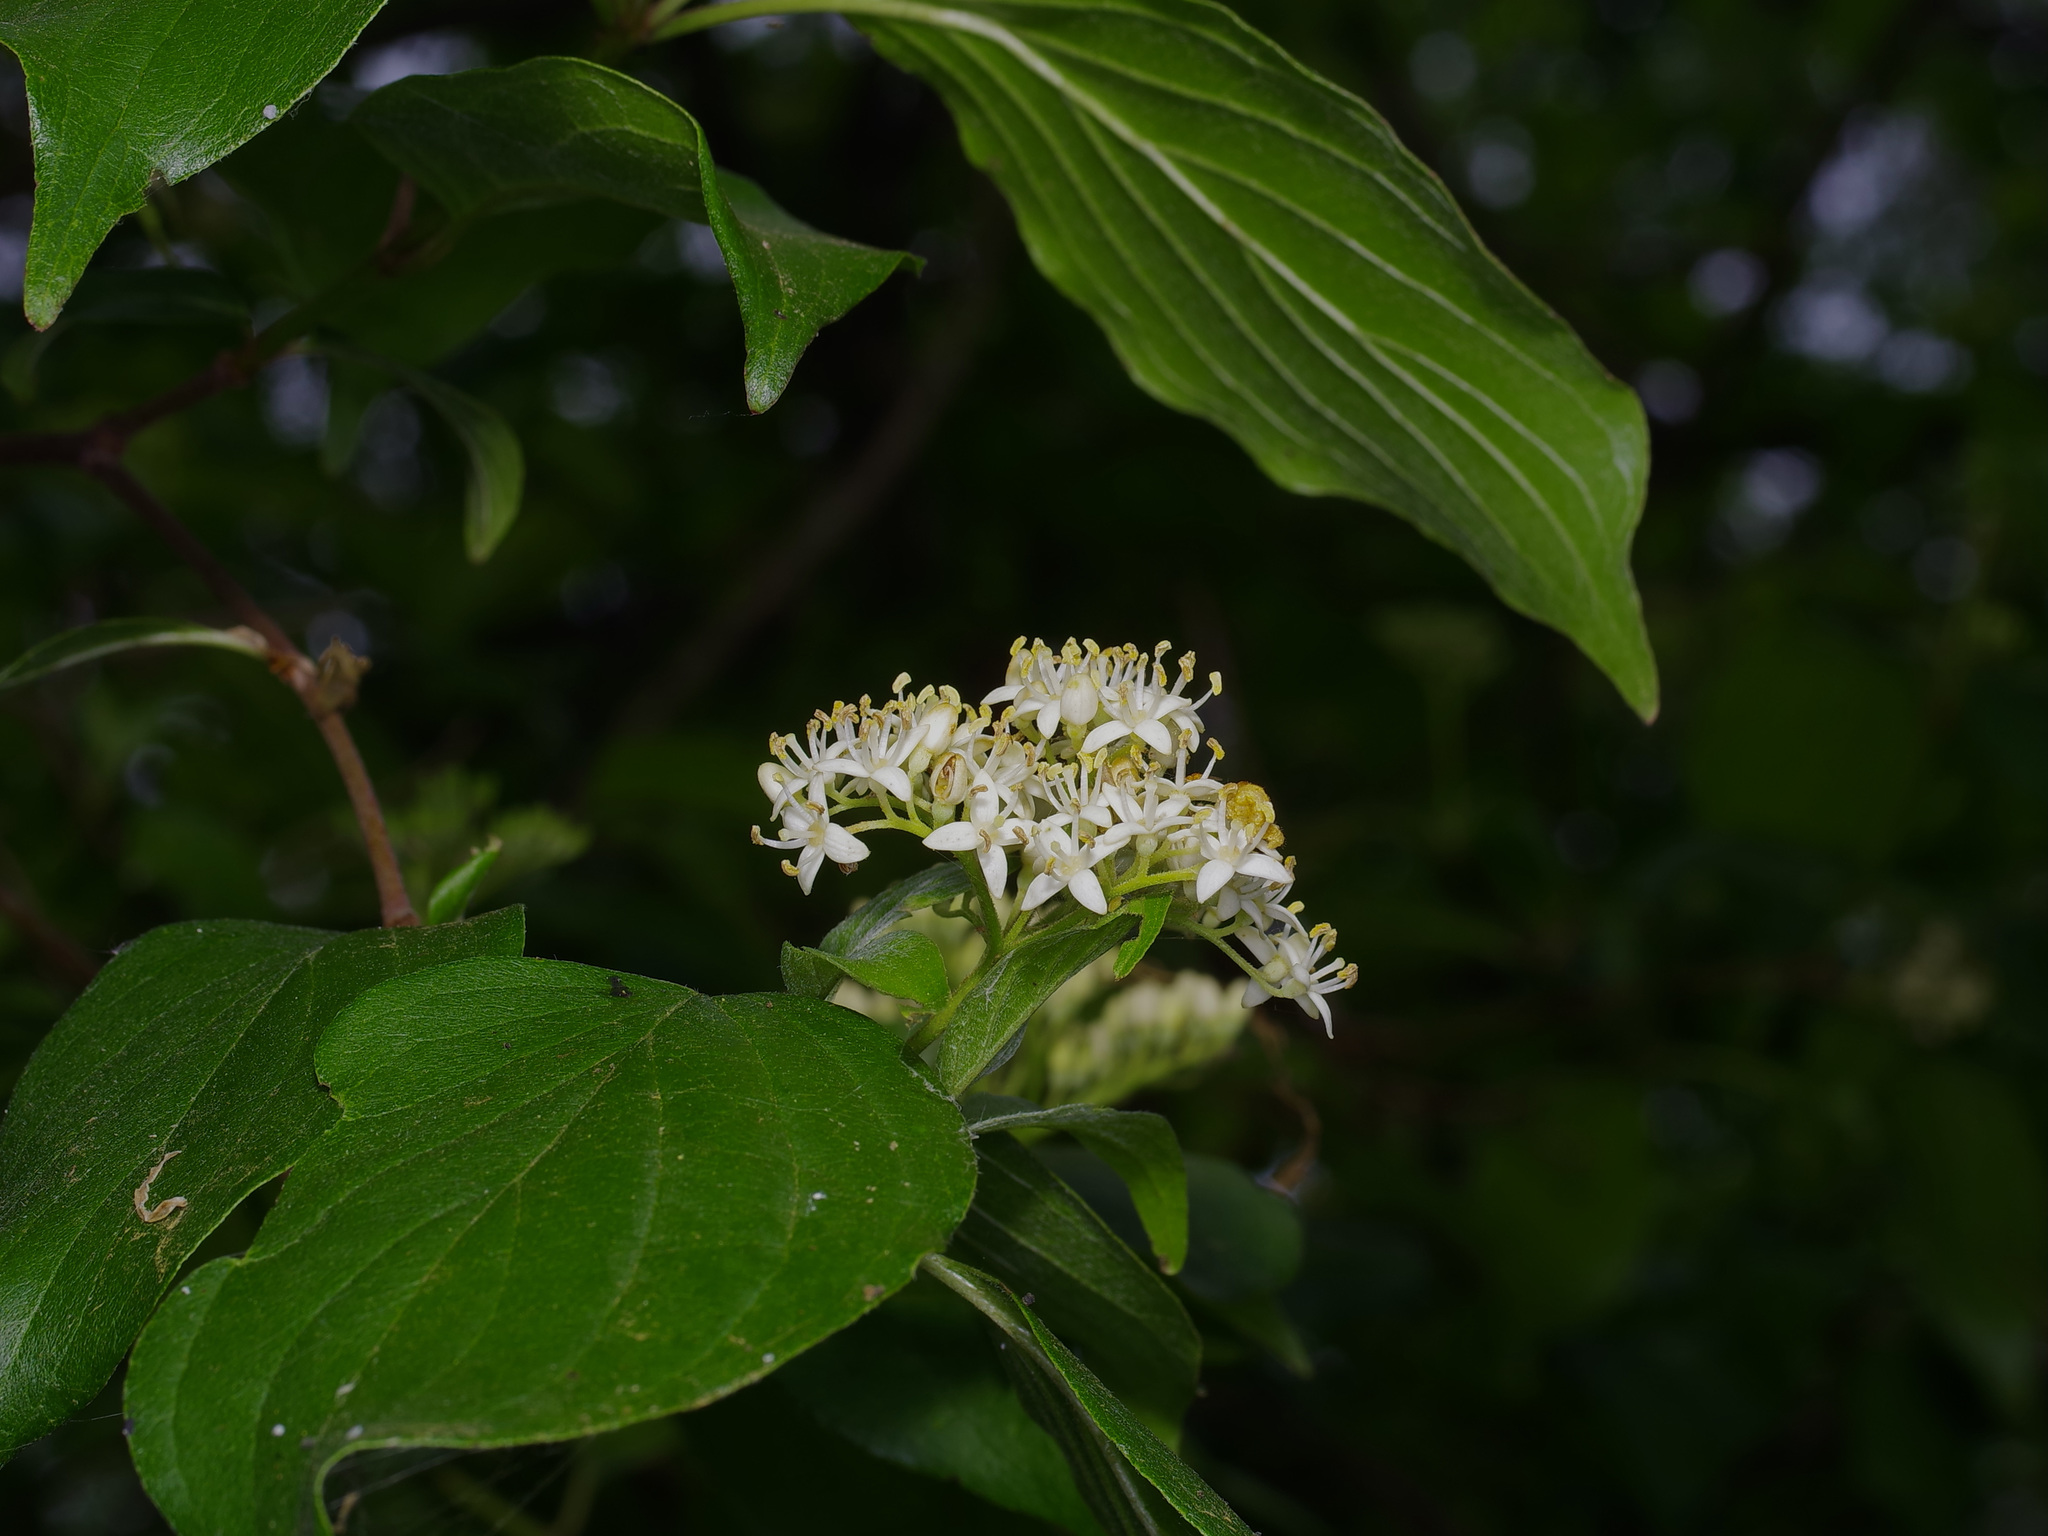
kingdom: Plantae
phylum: Tracheophyta
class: Magnoliopsida
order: Cornales
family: Cornaceae
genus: Cornus
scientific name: Cornus drummondii
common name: Rough-leaf dogwood
